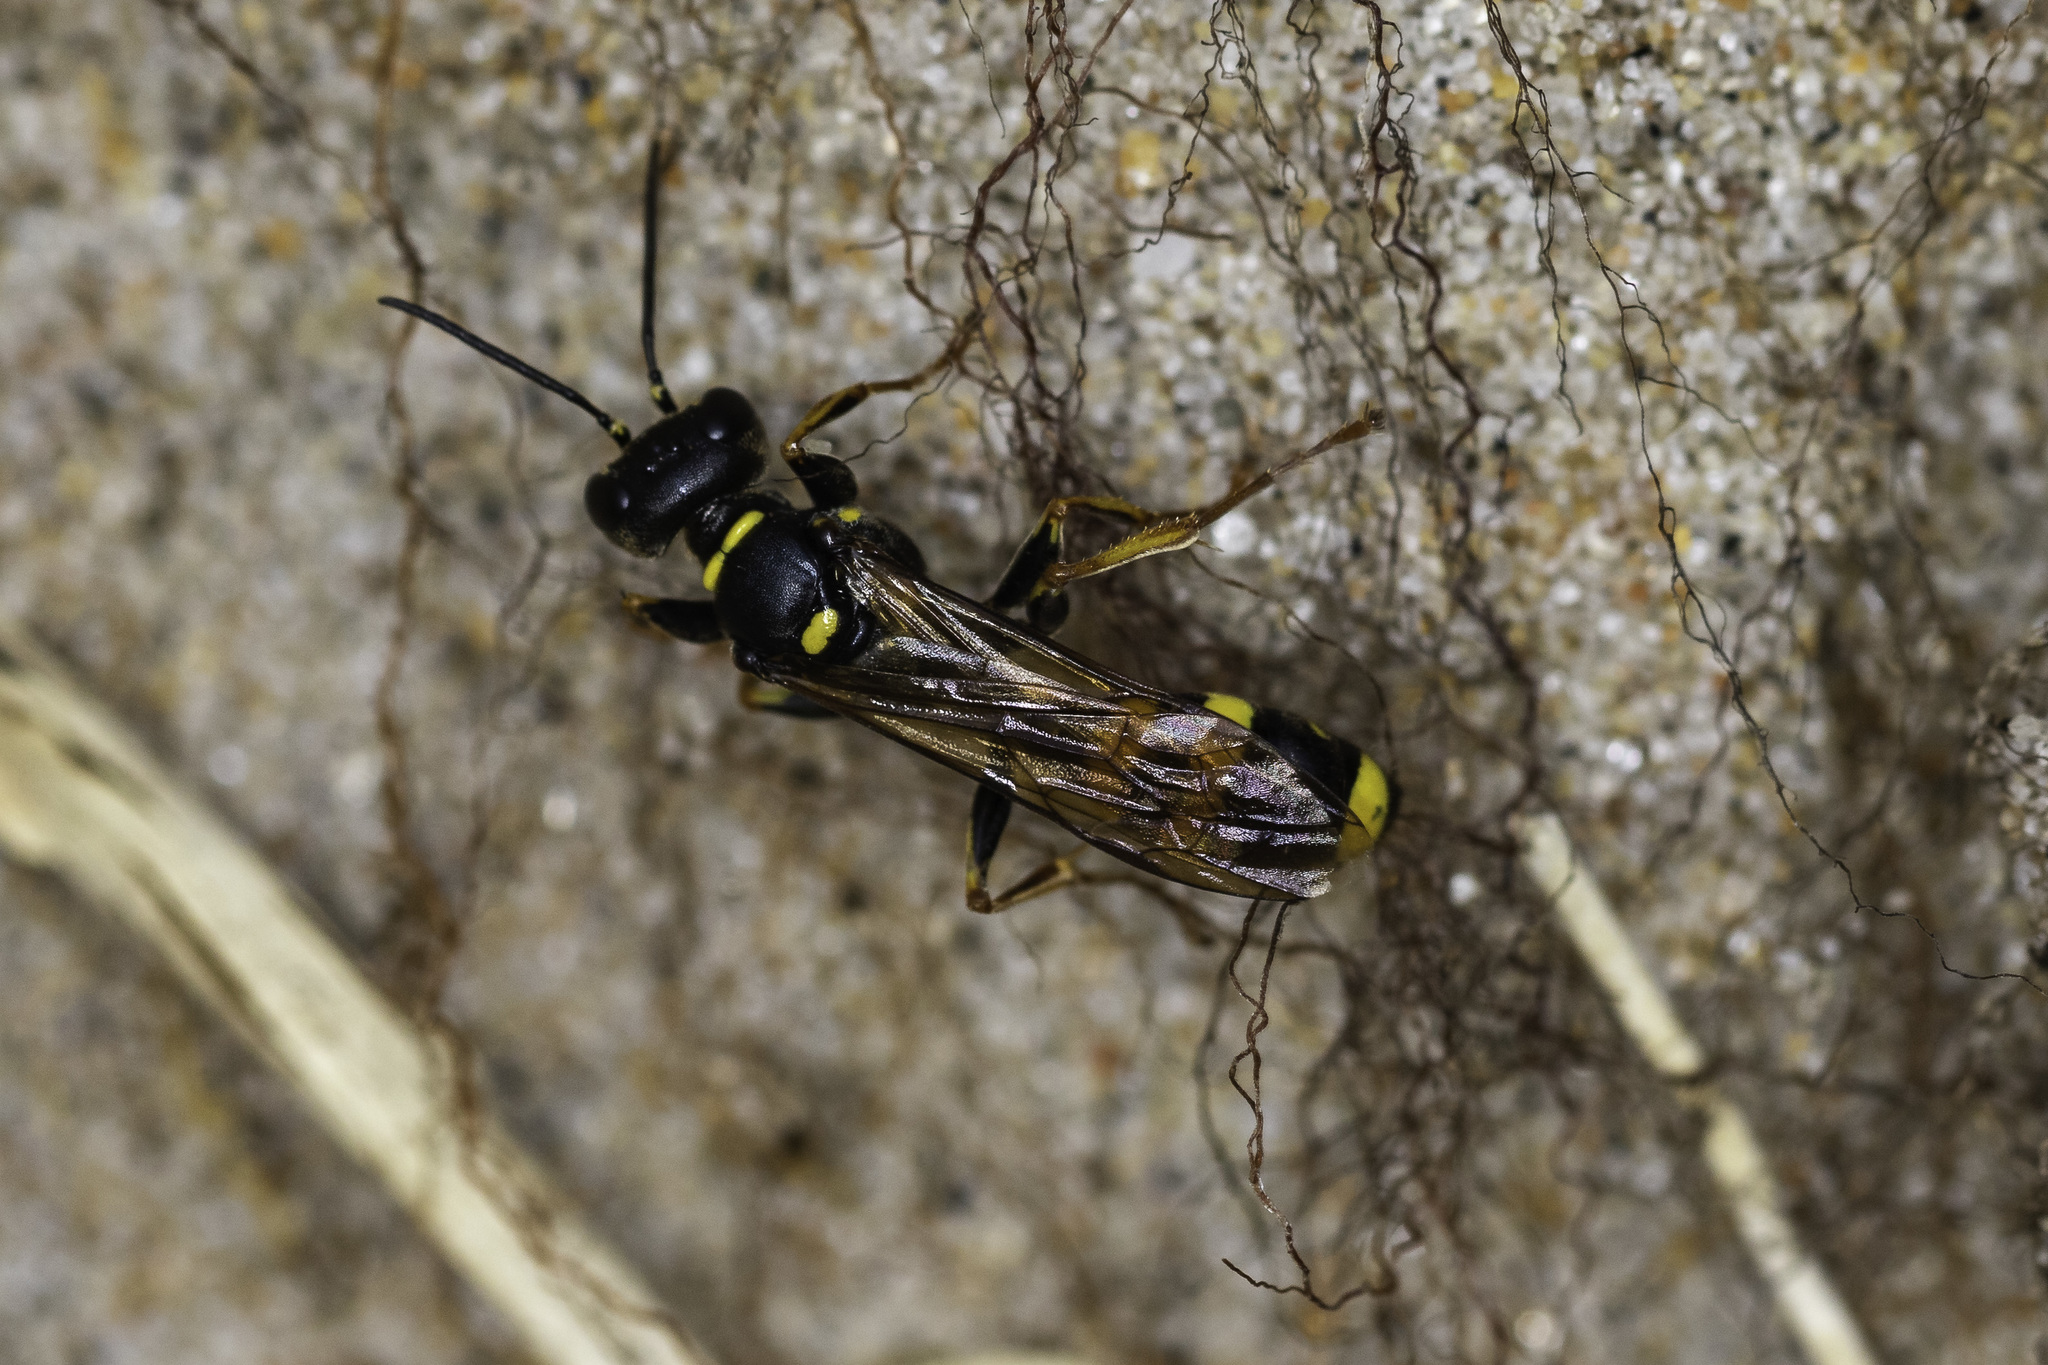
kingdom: Animalia
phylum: Arthropoda
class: Insecta
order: Hymenoptera
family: Crabronidae
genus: Mellinus
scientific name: Mellinus arvensis
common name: Field digger wasp
